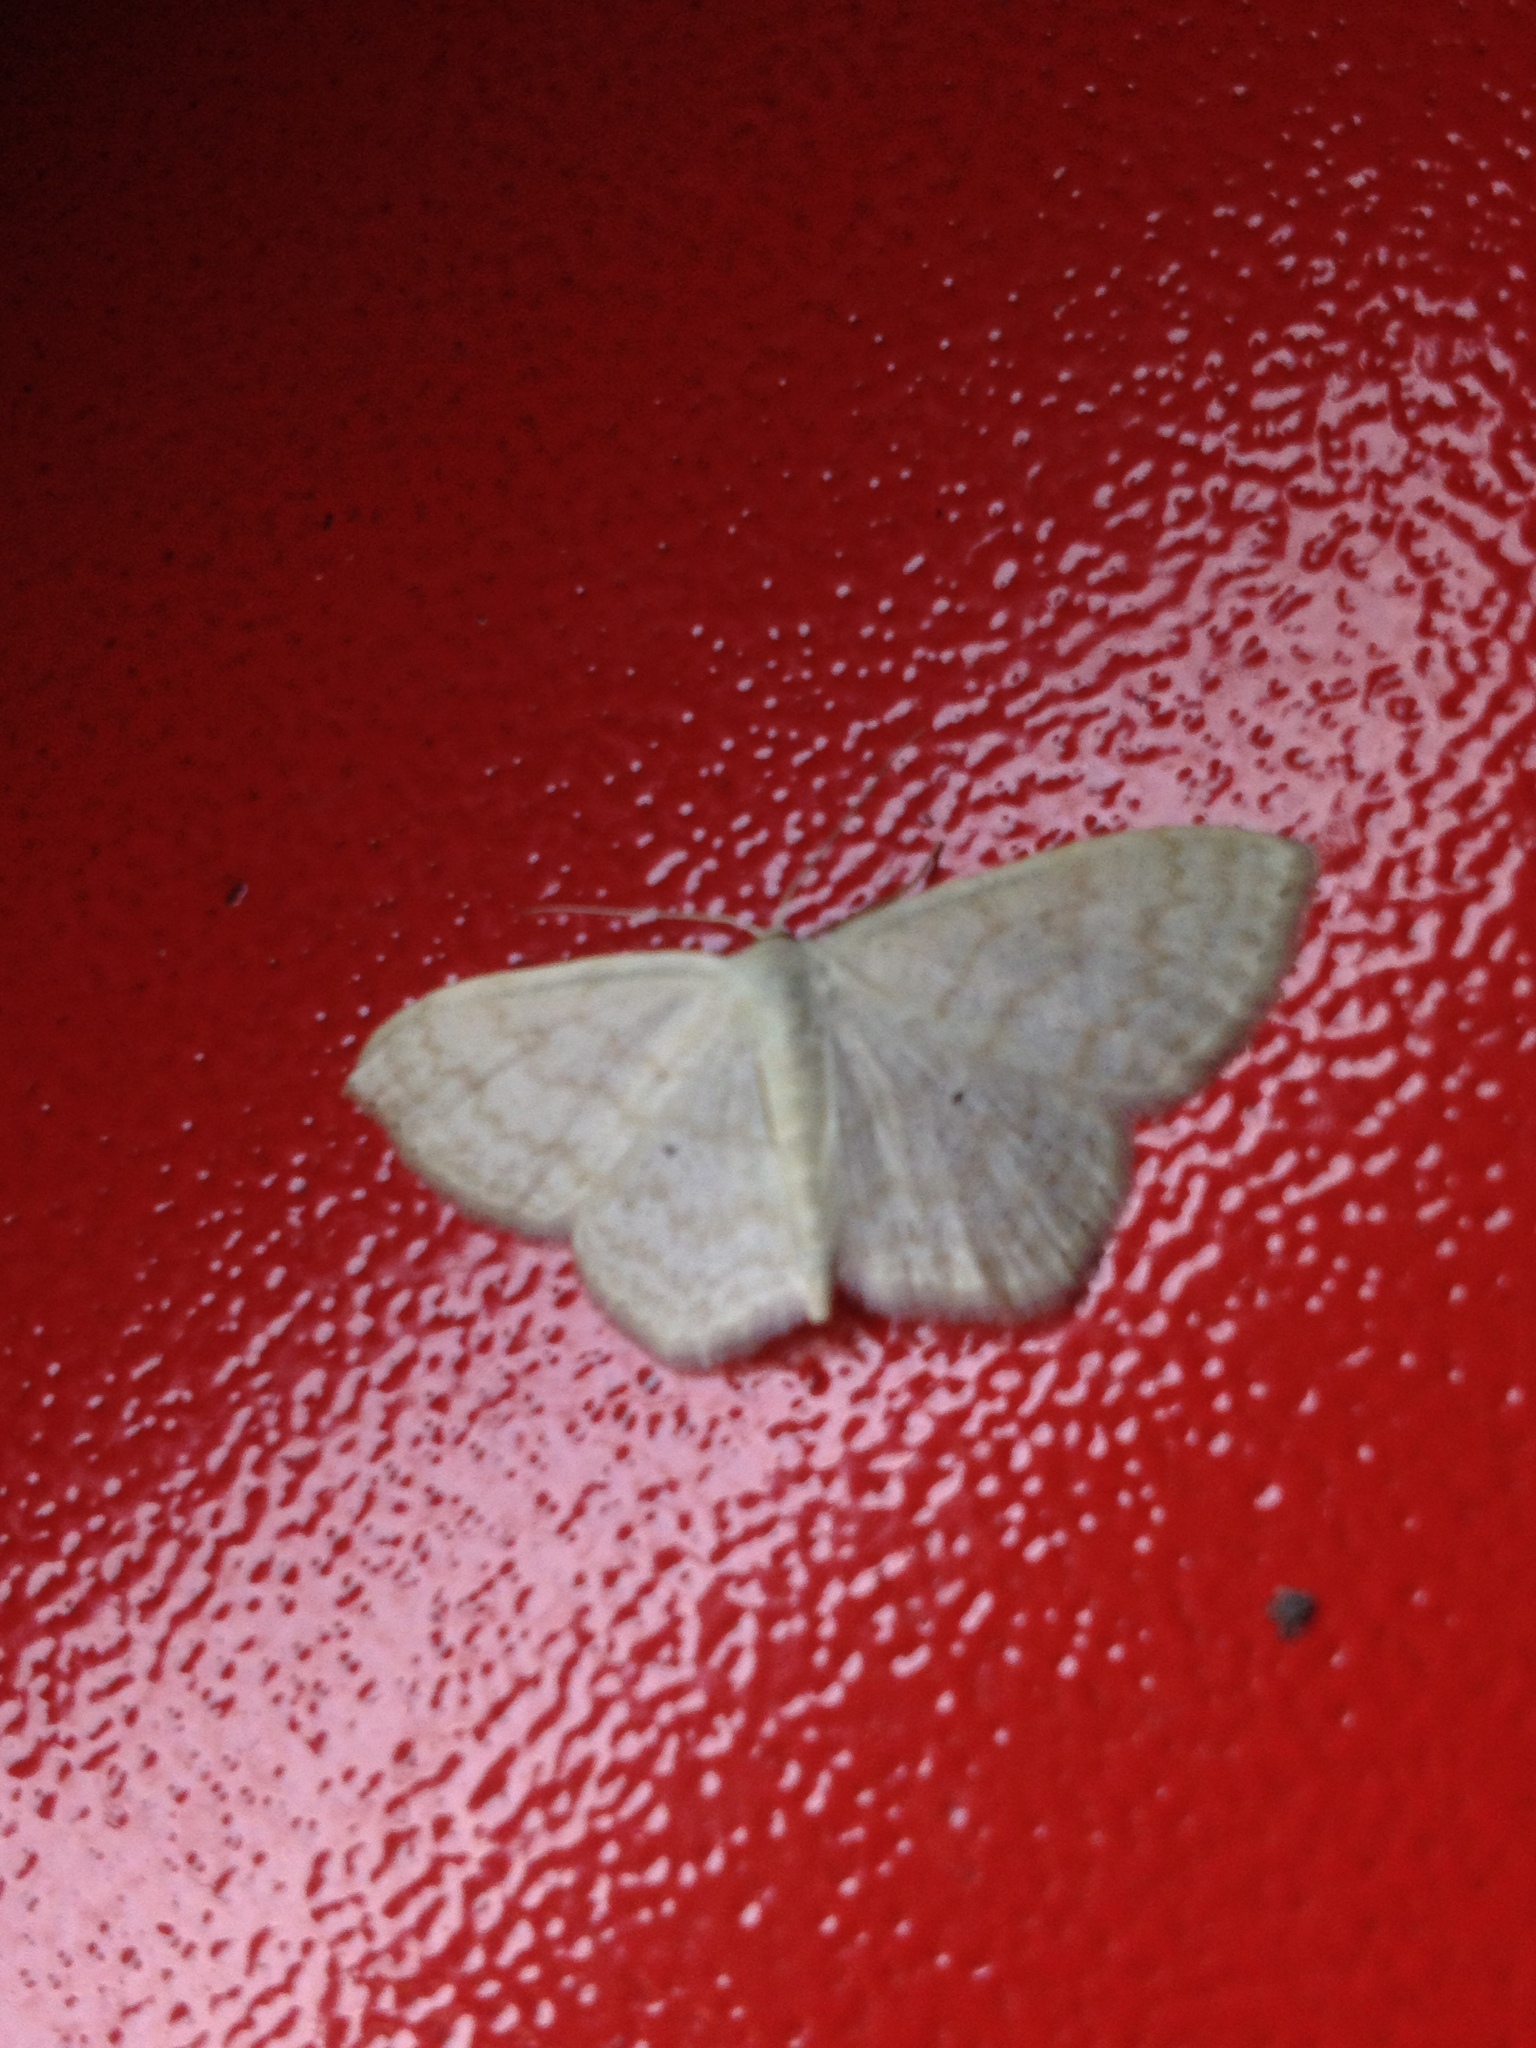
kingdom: Animalia
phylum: Arthropoda
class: Insecta
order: Lepidoptera
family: Geometridae
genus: Scopula
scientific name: Scopula floslactata
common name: Cream wave
